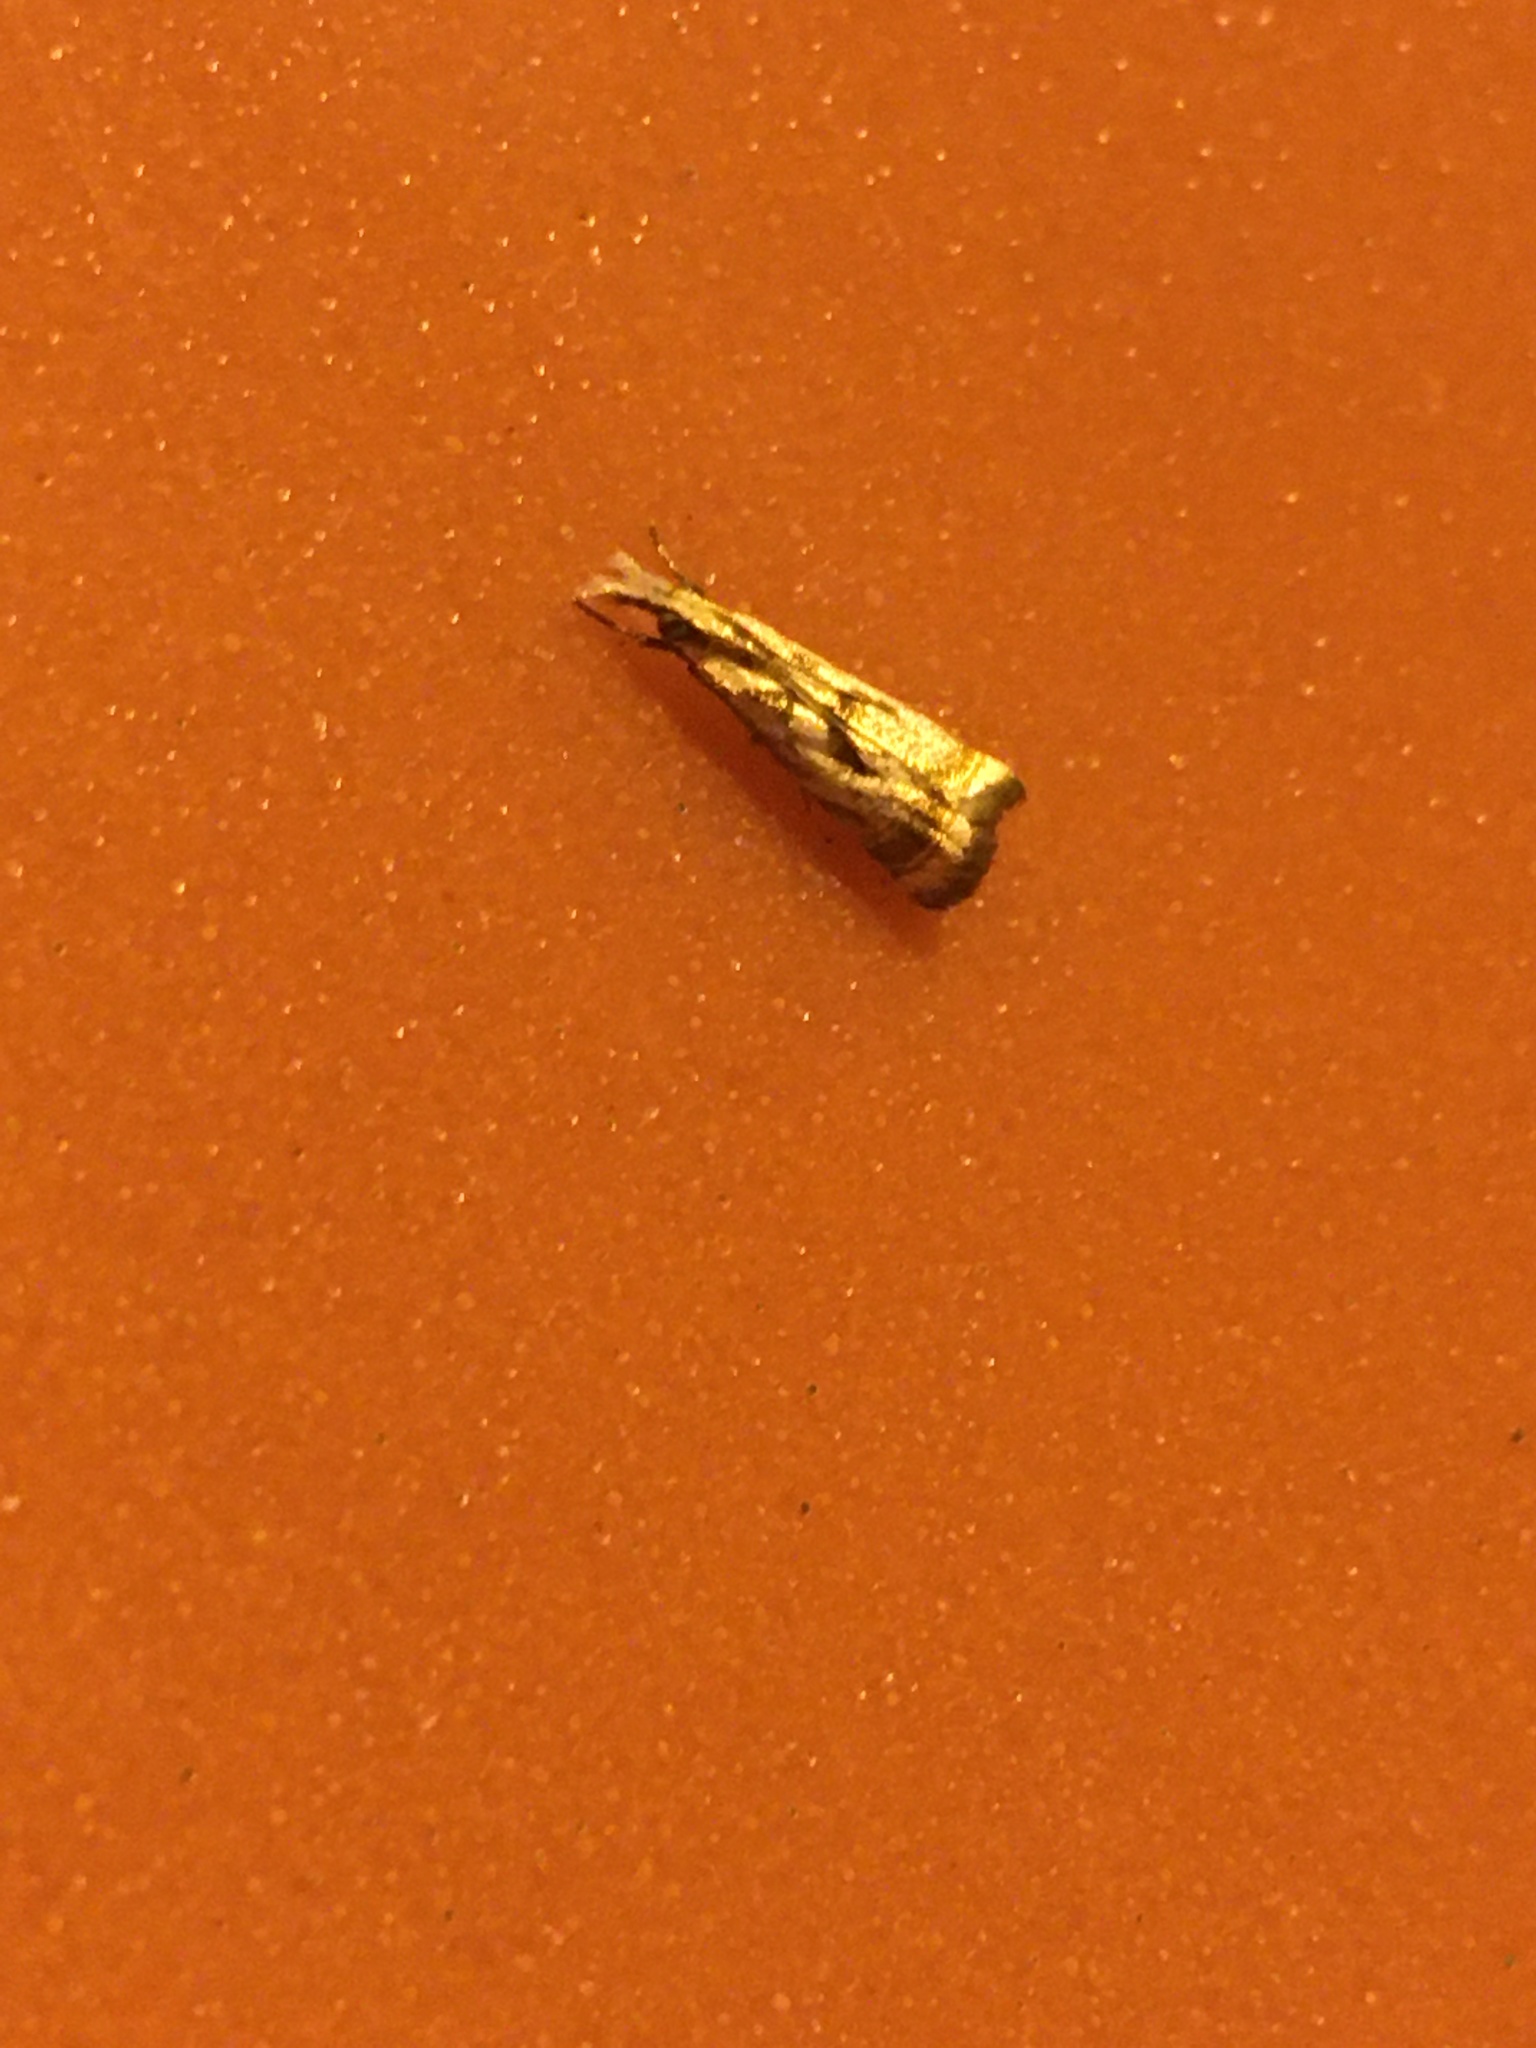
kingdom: Animalia
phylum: Arthropoda
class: Insecta
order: Lepidoptera
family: Crambidae
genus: Microcrambus
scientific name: Microcrambus elegans
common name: Elegant grass-veneer
